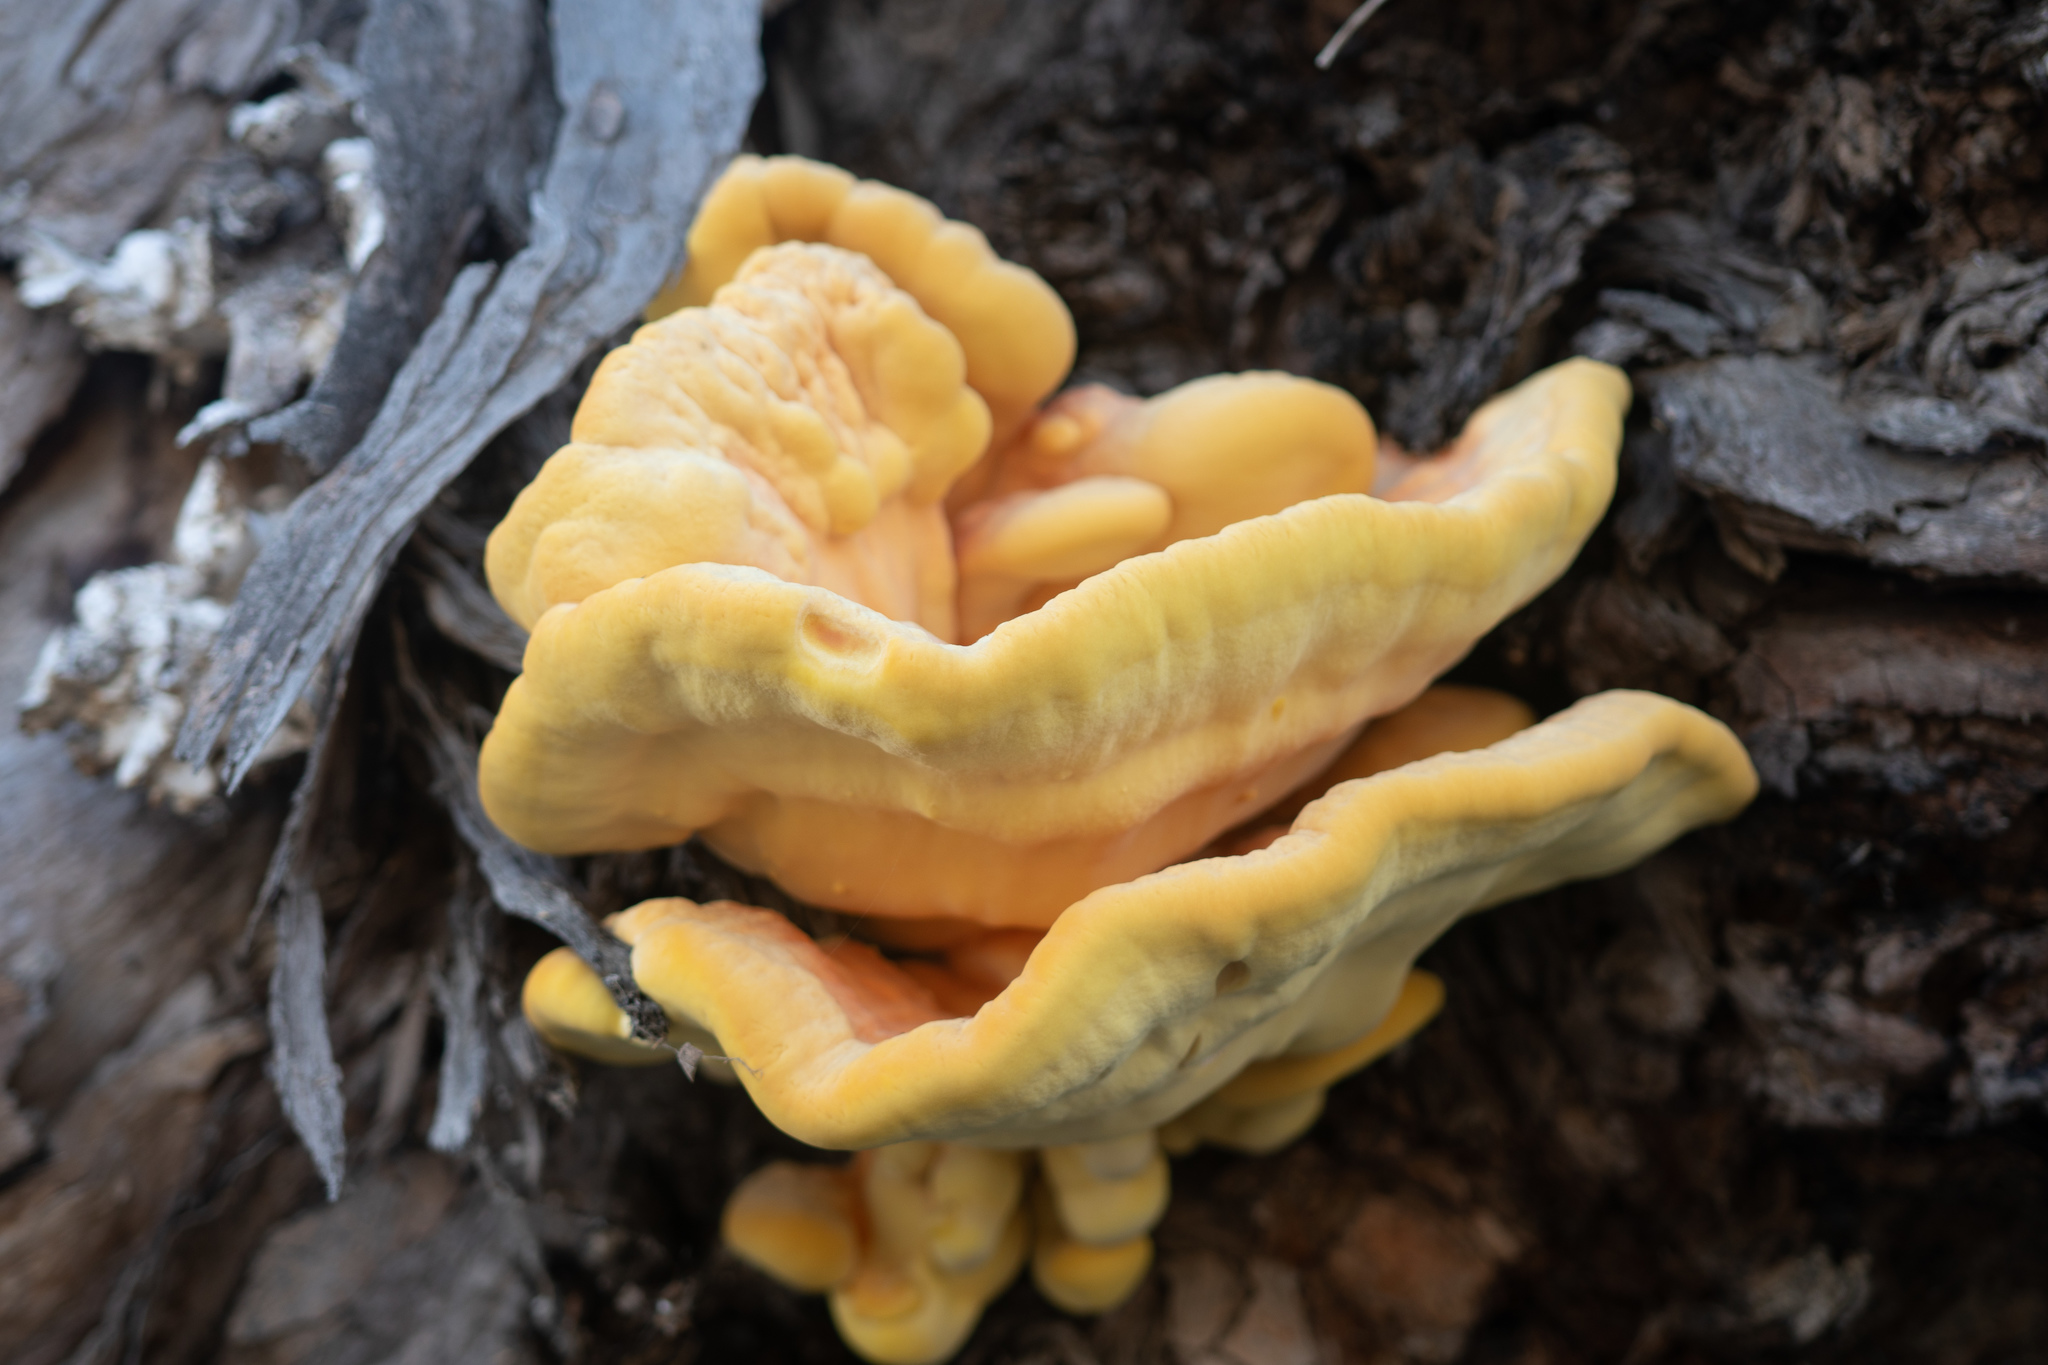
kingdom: Fungi
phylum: Basidiomycota
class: Agaricomycetes
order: Polyporales
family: Laetiporaceae
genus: Laetiporus
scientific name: Laetiporus gilbertsonii
